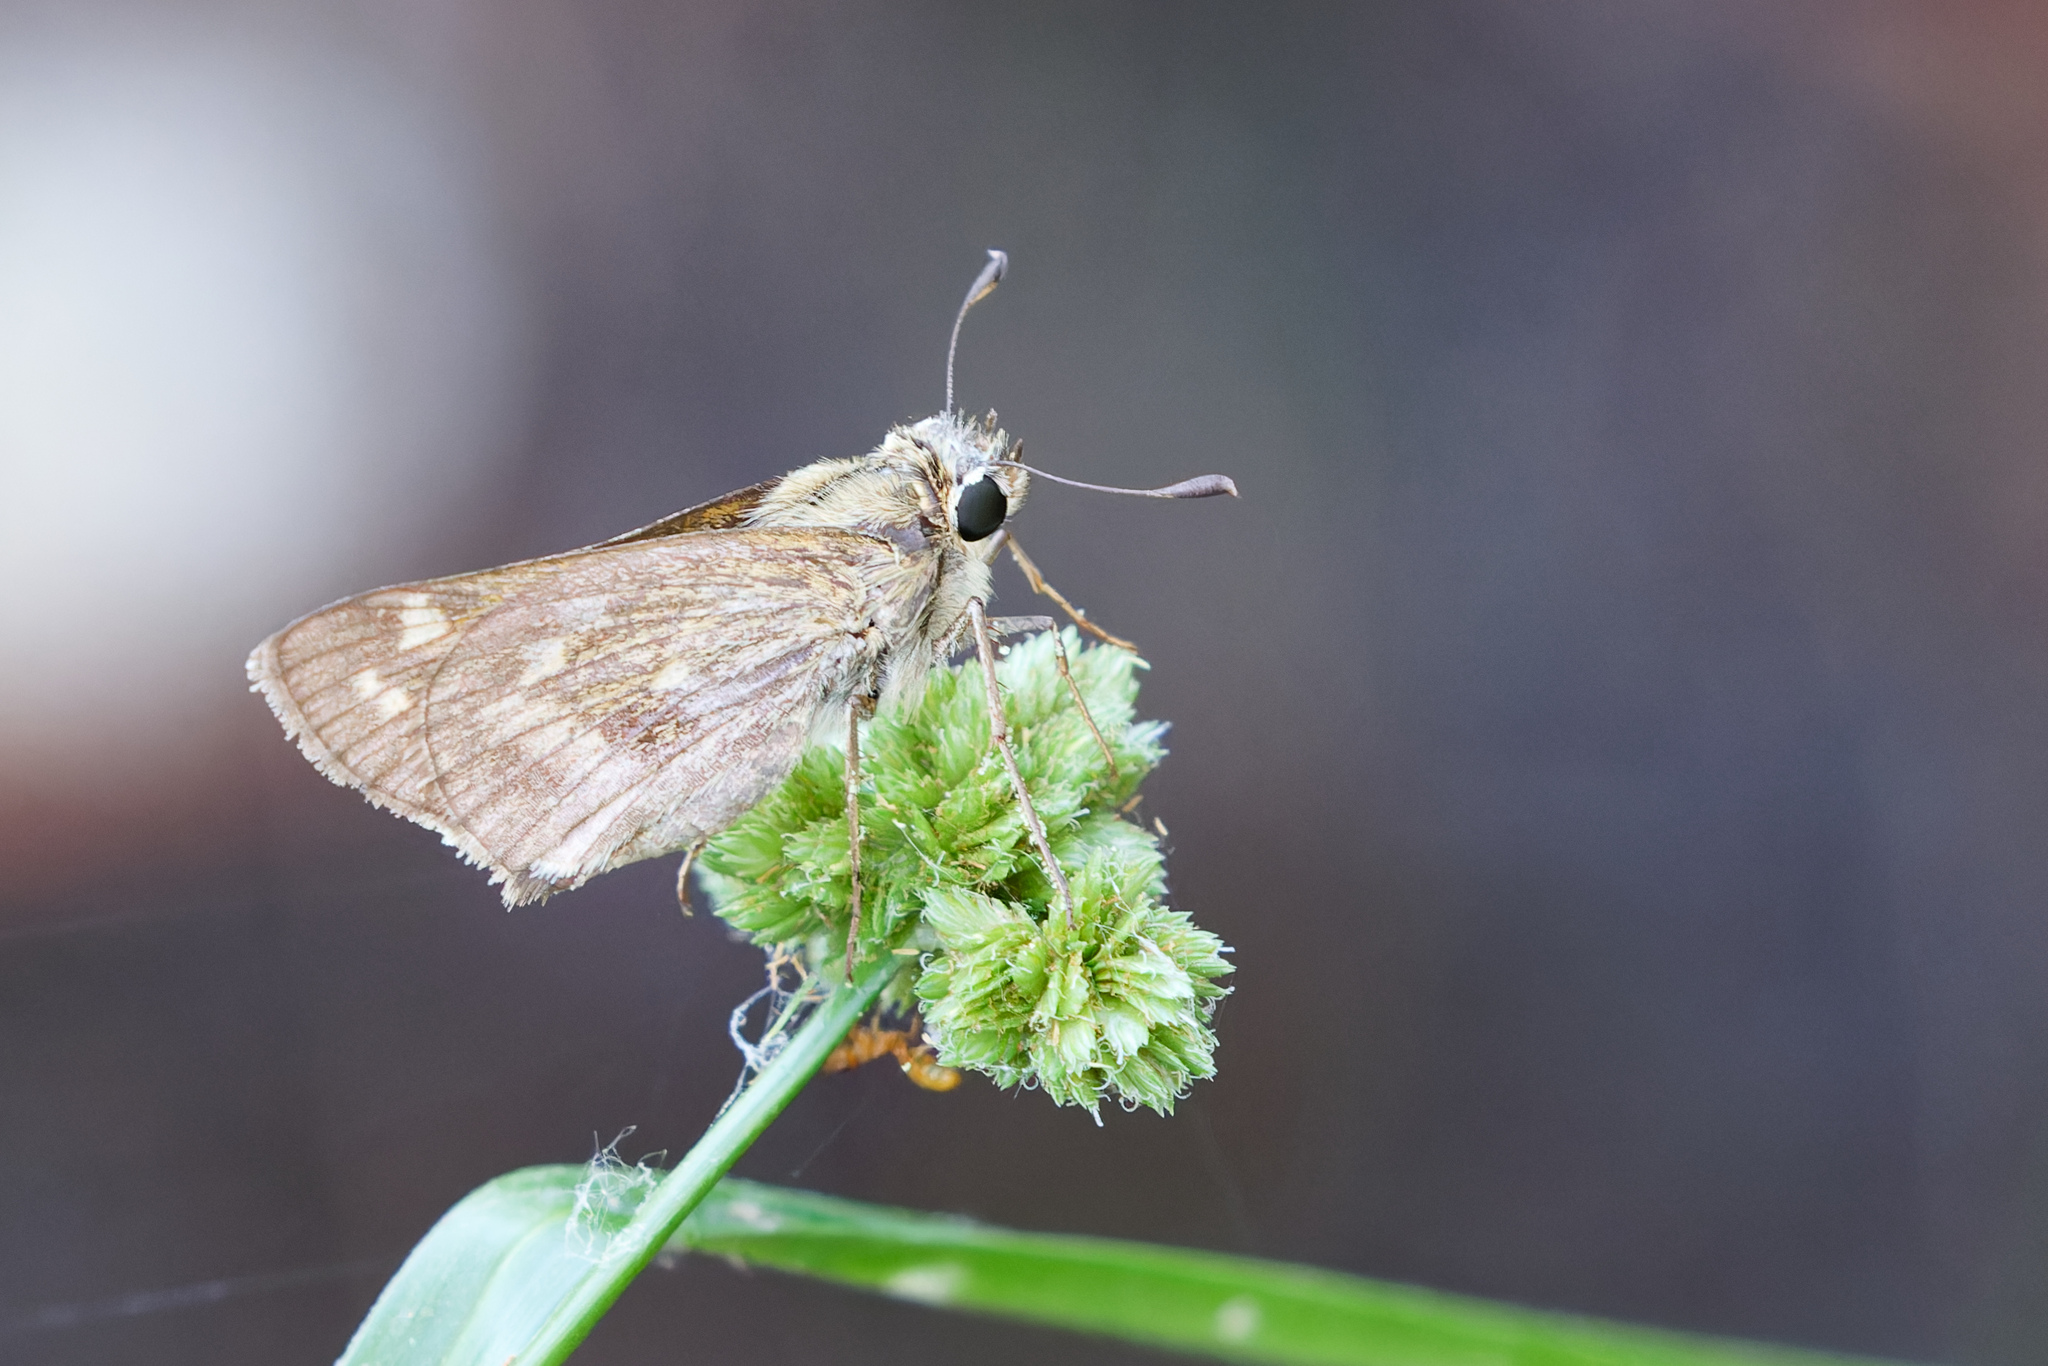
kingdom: Animalia
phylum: Arthropoda
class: Insecta
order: Lepidoptera
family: Hesperiidae
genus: Atalopedes
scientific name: Atalopedes
